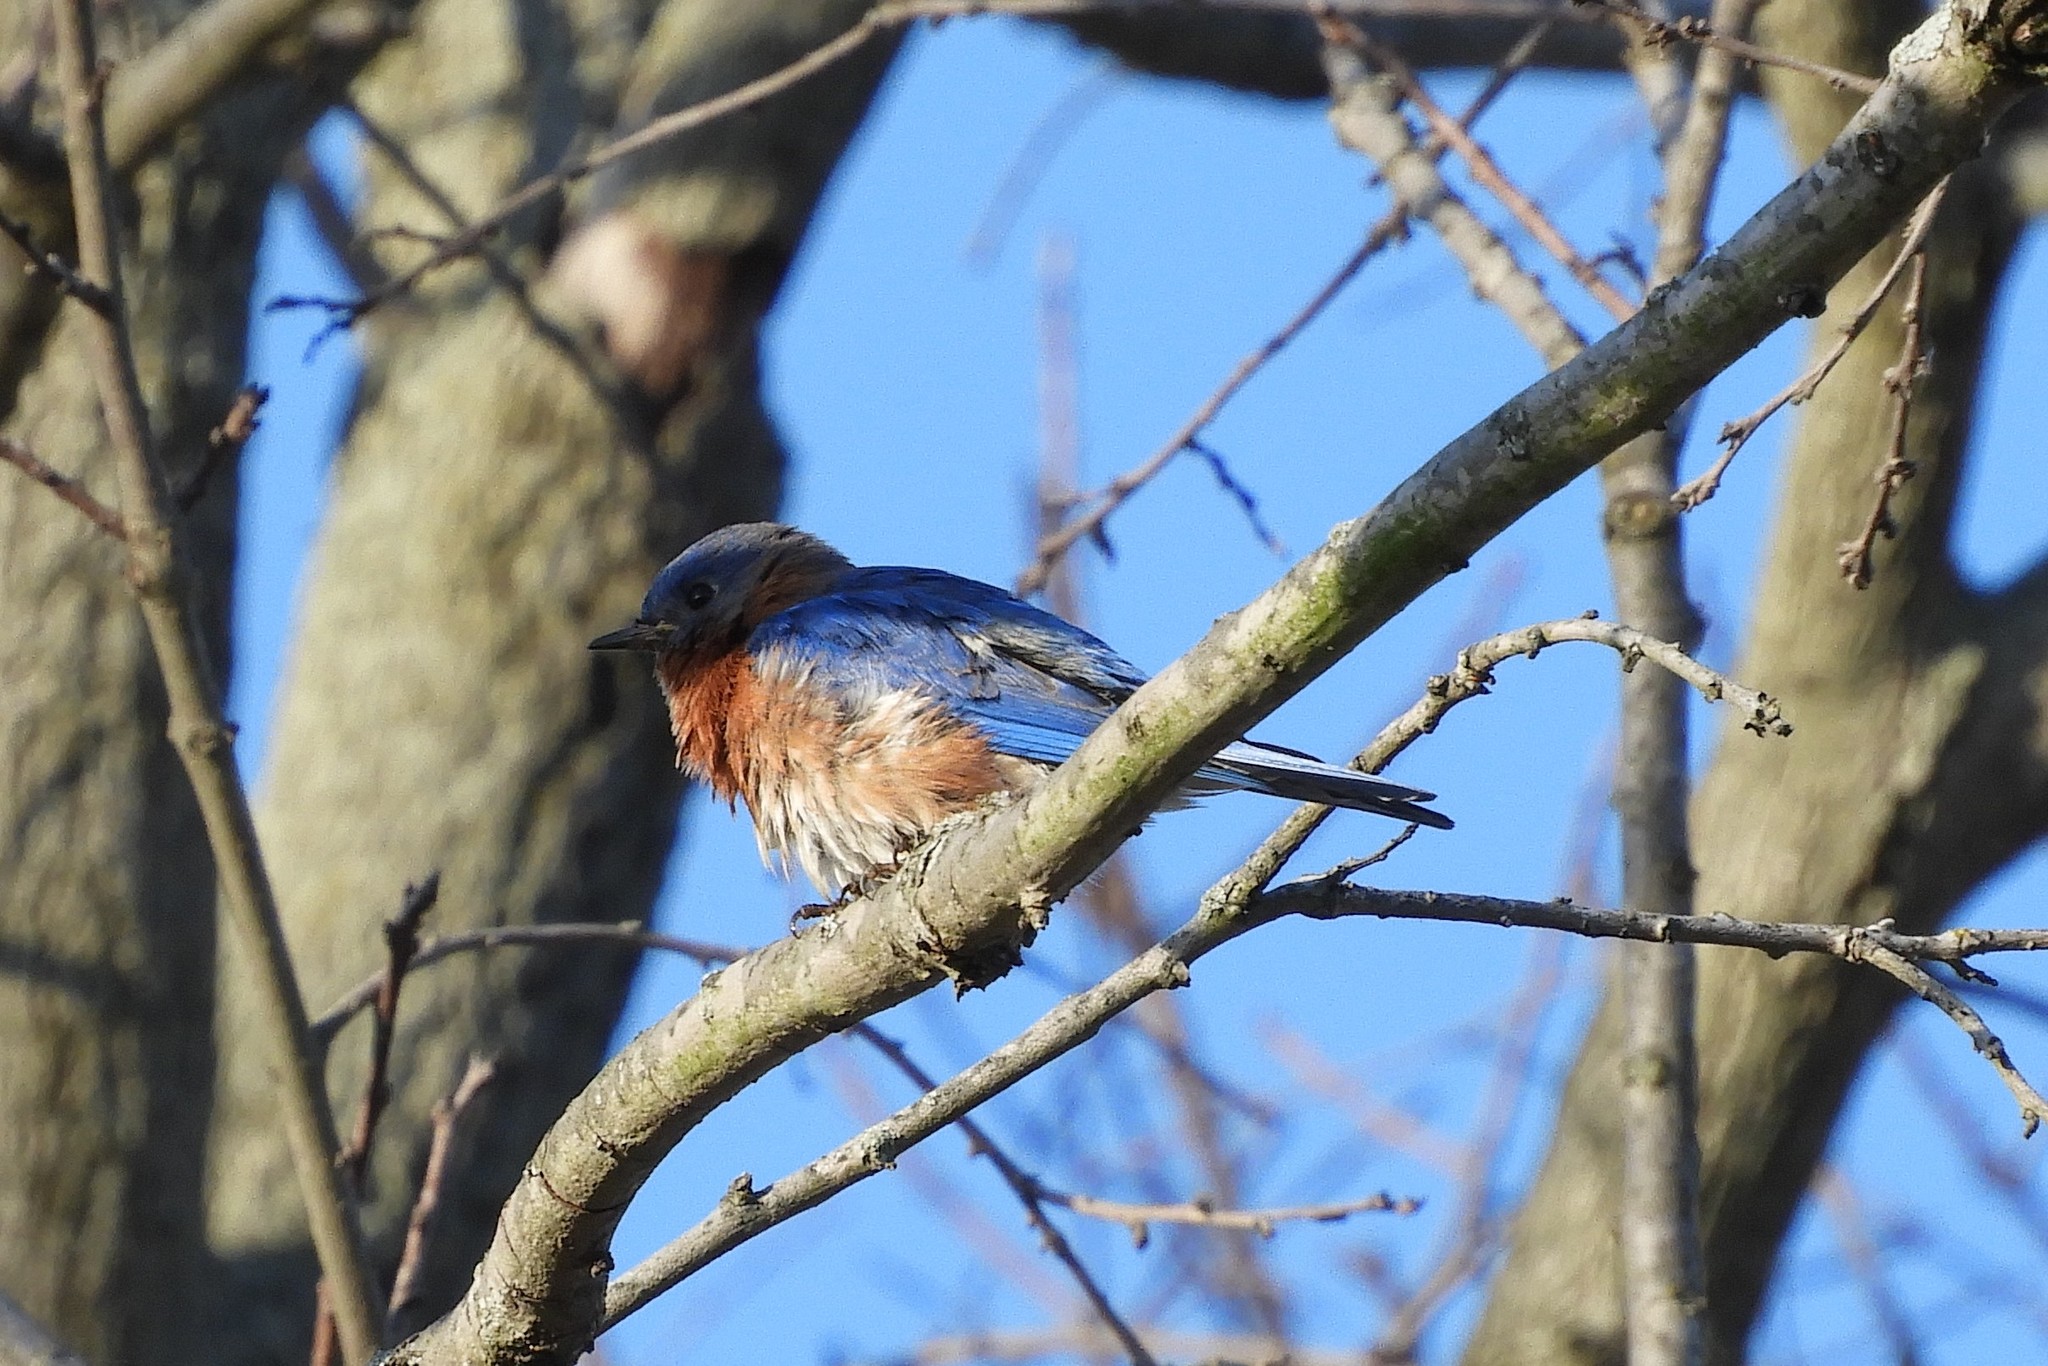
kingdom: Animalia
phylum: Chordata
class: Aves
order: Passeriformes
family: Turdidae
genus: Sialia
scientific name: Sialia sialis
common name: Eastern bluebird
